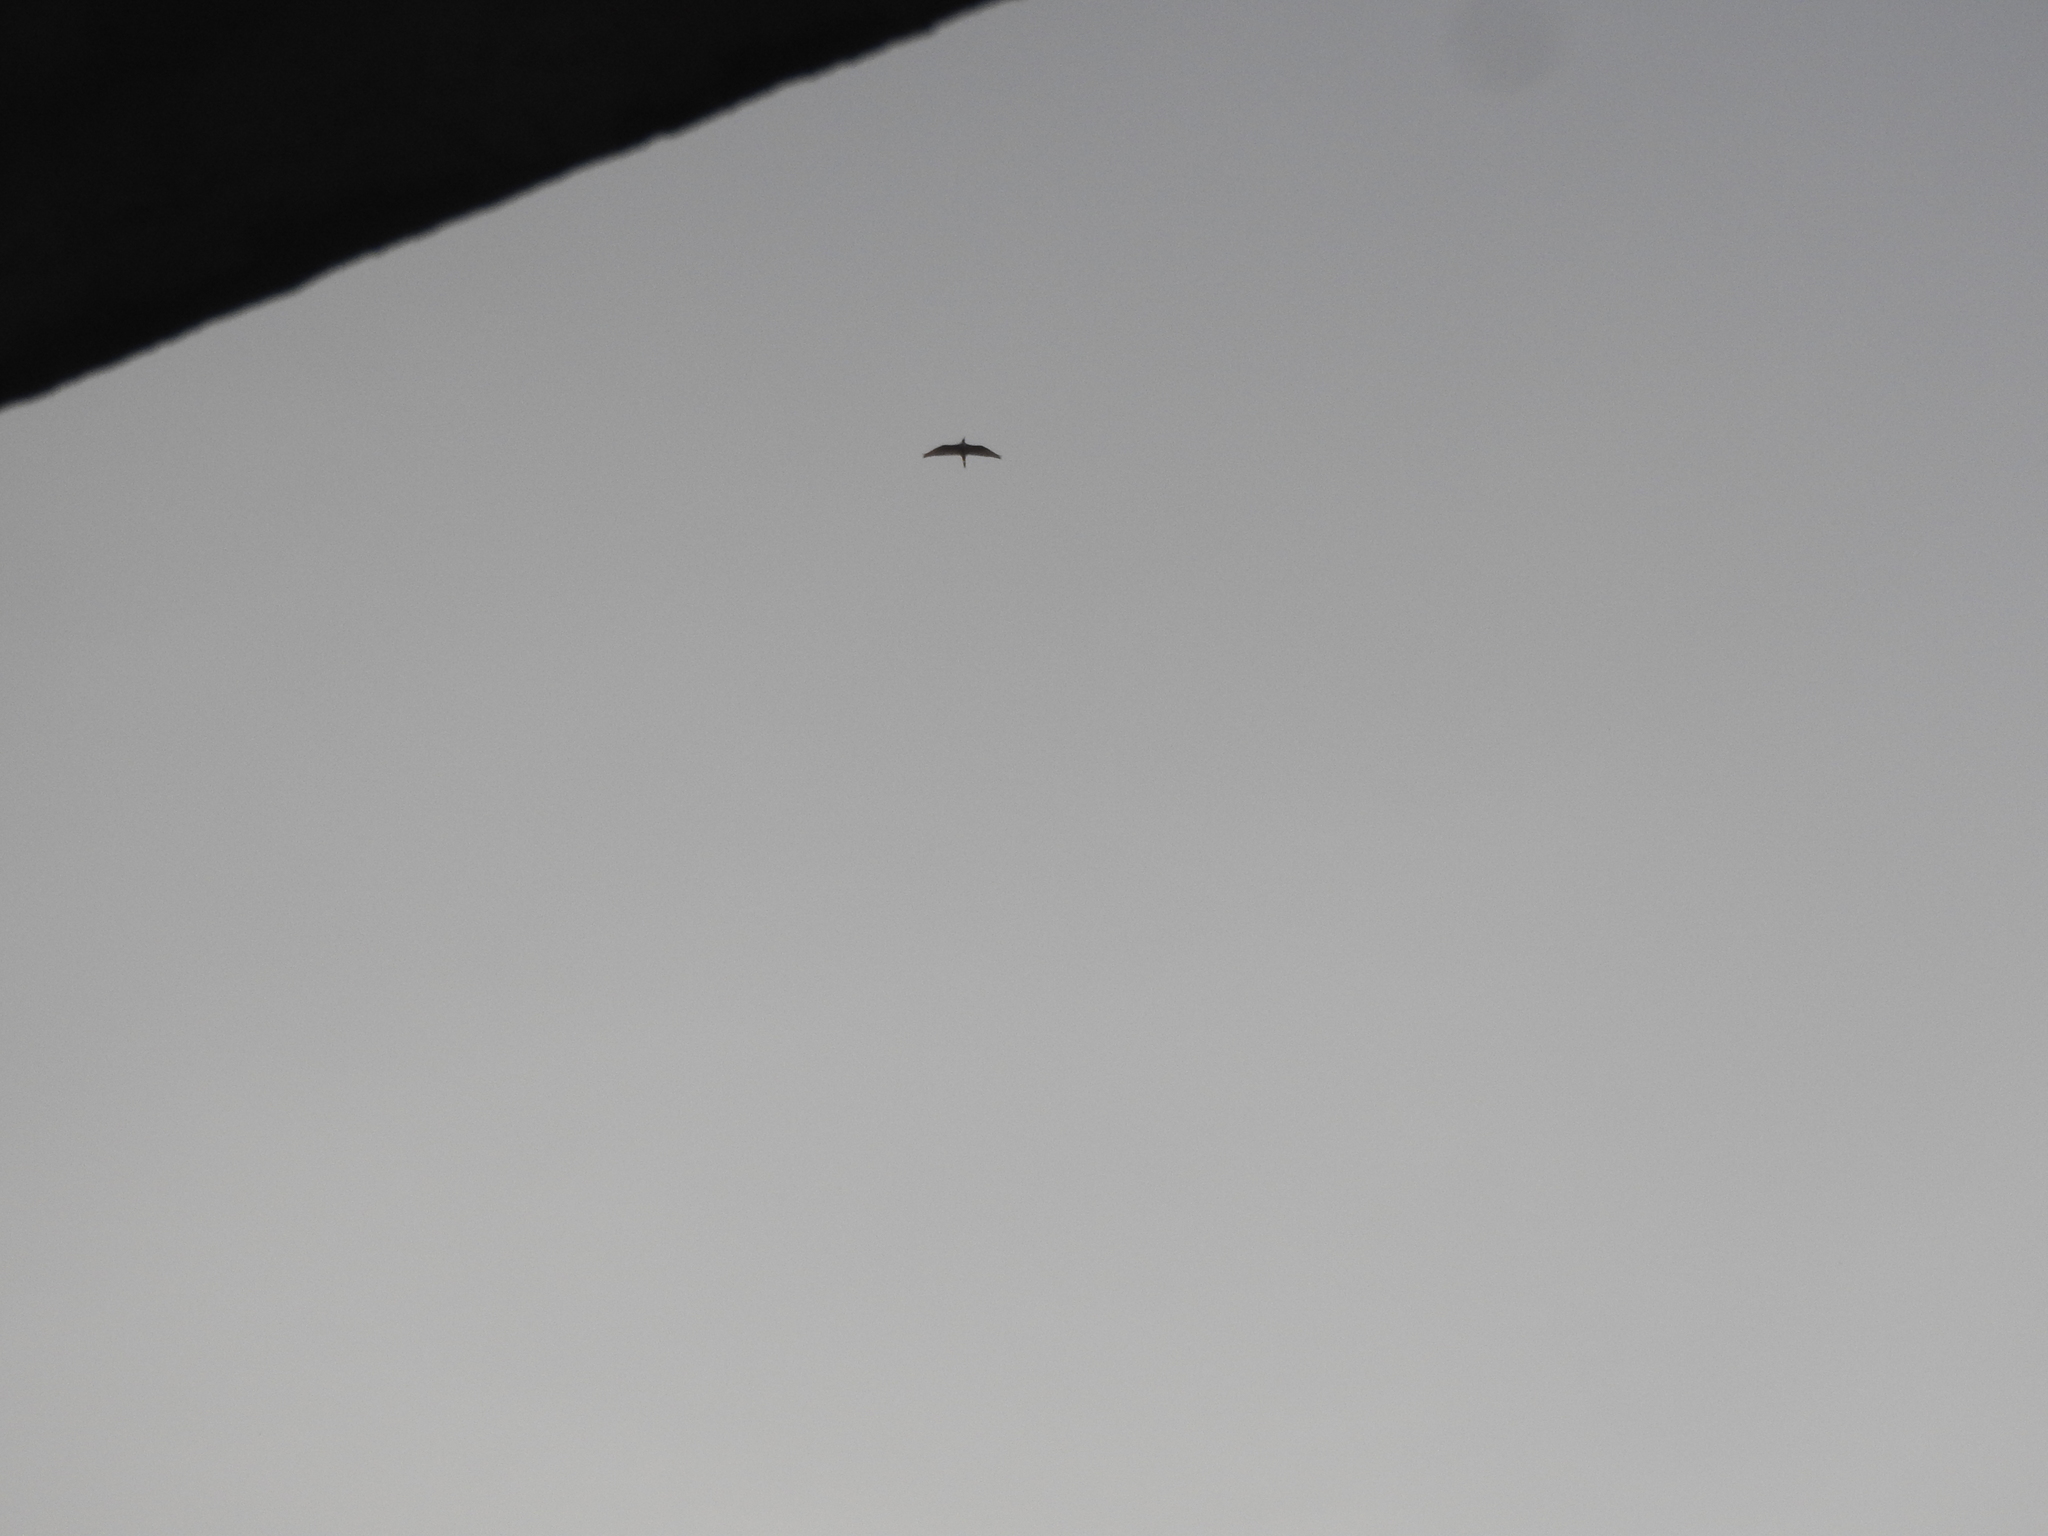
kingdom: Animalia
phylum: Chordata
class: Aves
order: Pelecaniformes
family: Ardeidae
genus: Bubulcus
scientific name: Bubulcus ibis
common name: Cattle egret
